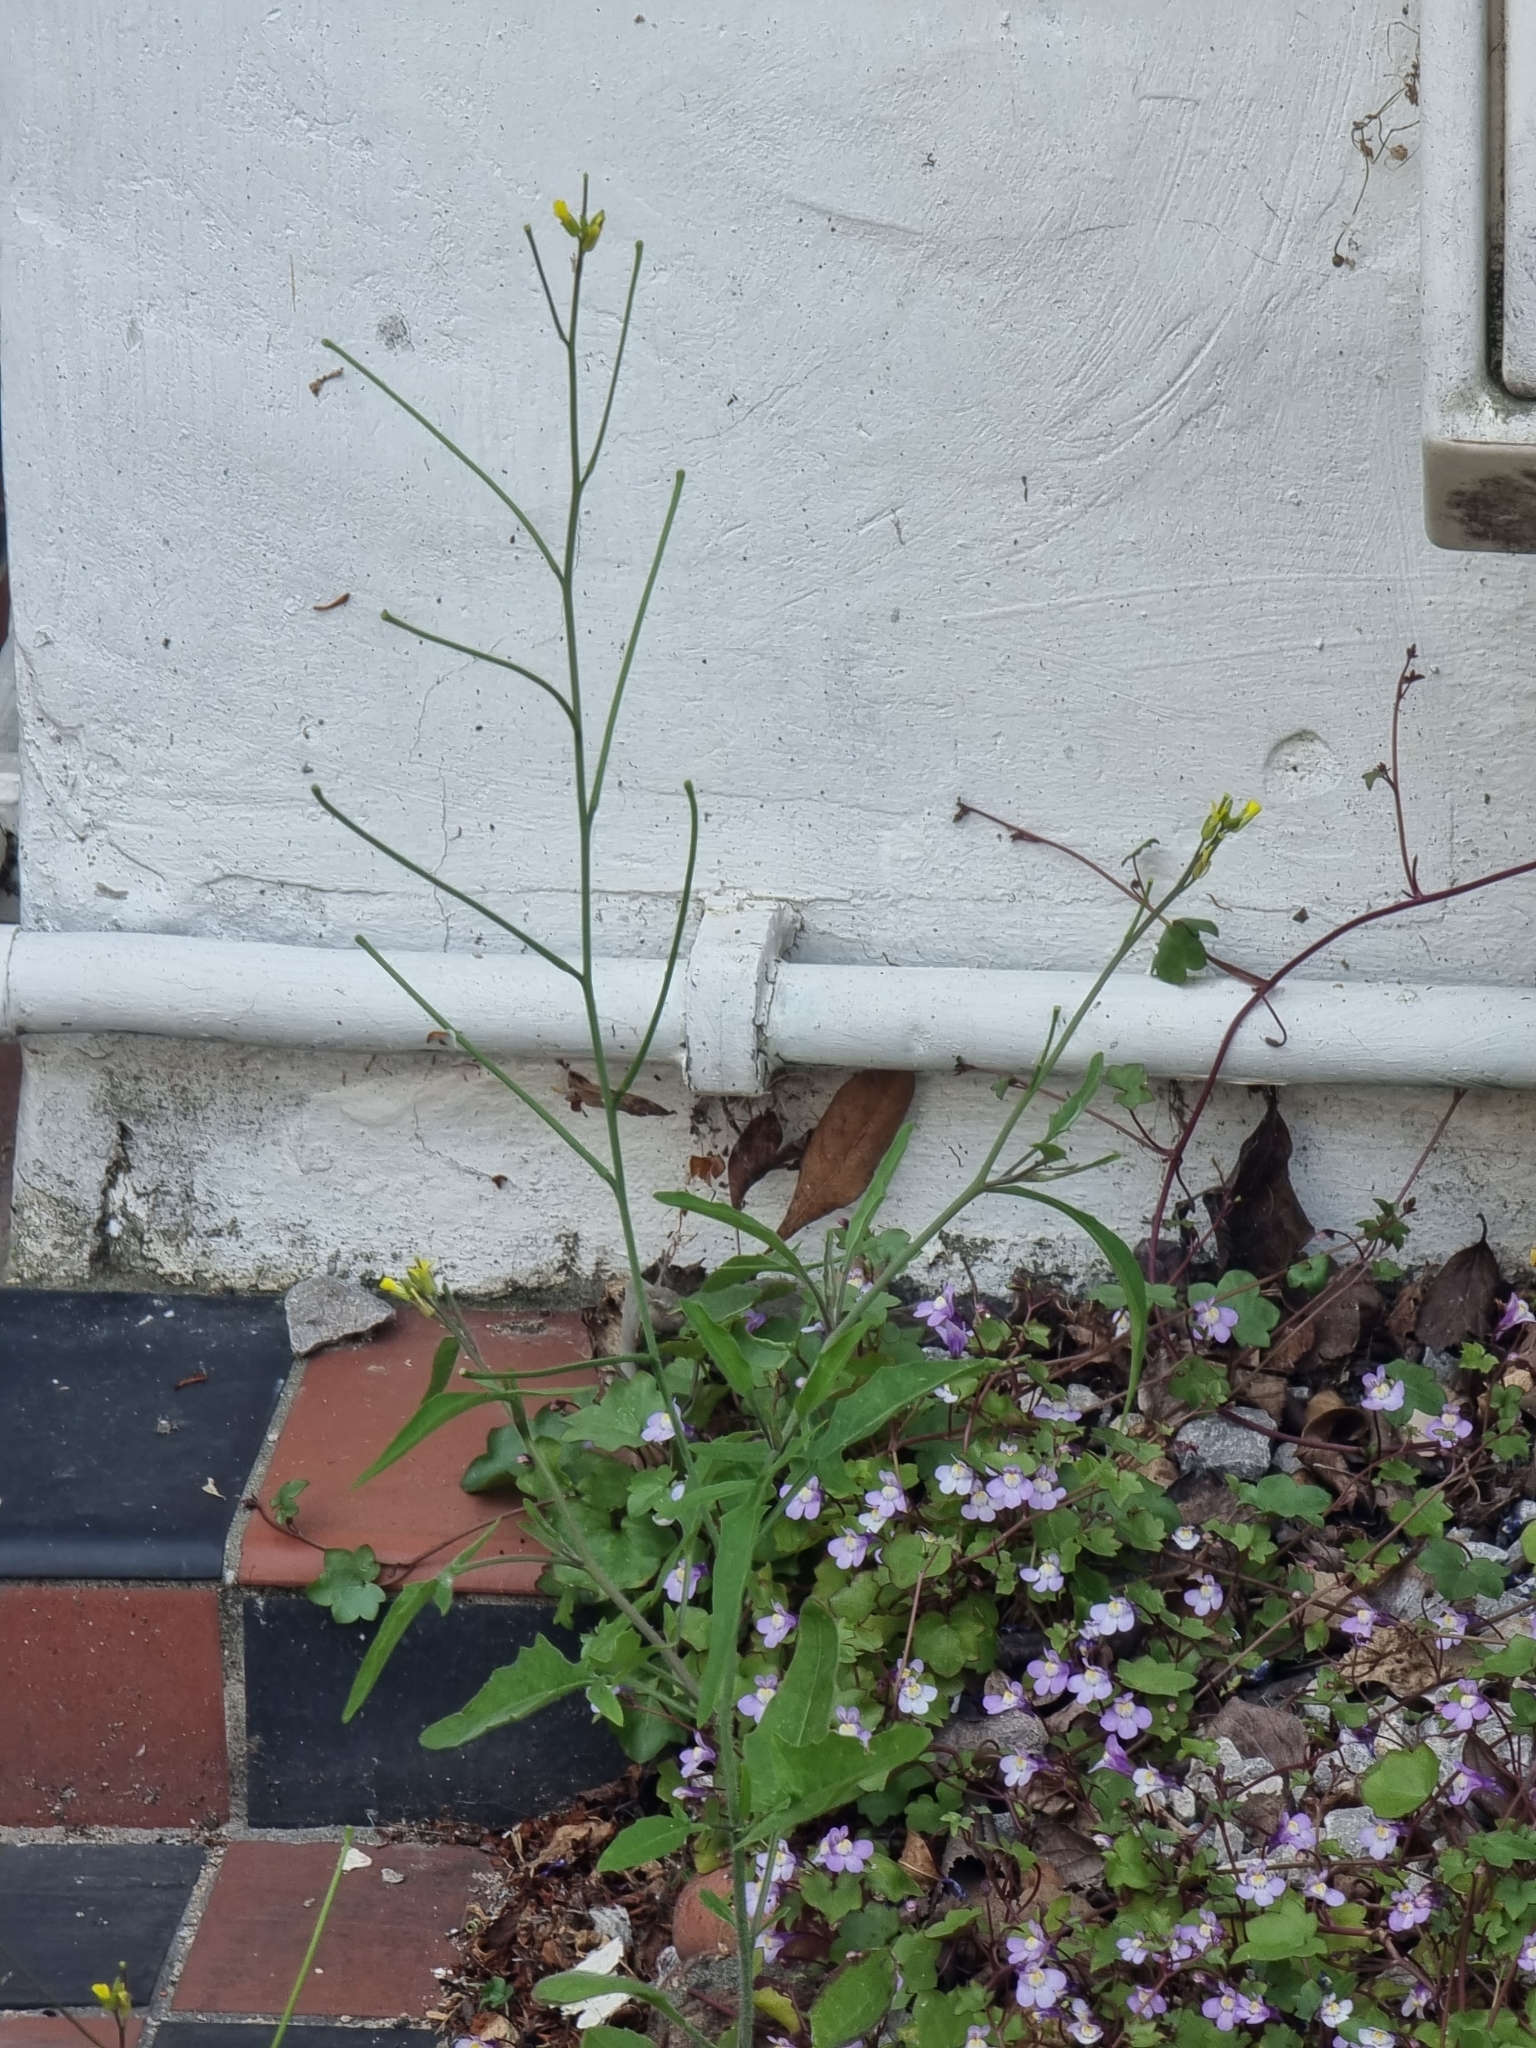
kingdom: Plantae
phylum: Tracheophyta
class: Magnoliopsida
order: Brassicales
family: Brassicaceae
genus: Sisymbrium
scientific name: Sisymbrium orientale
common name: Eastern rocket
